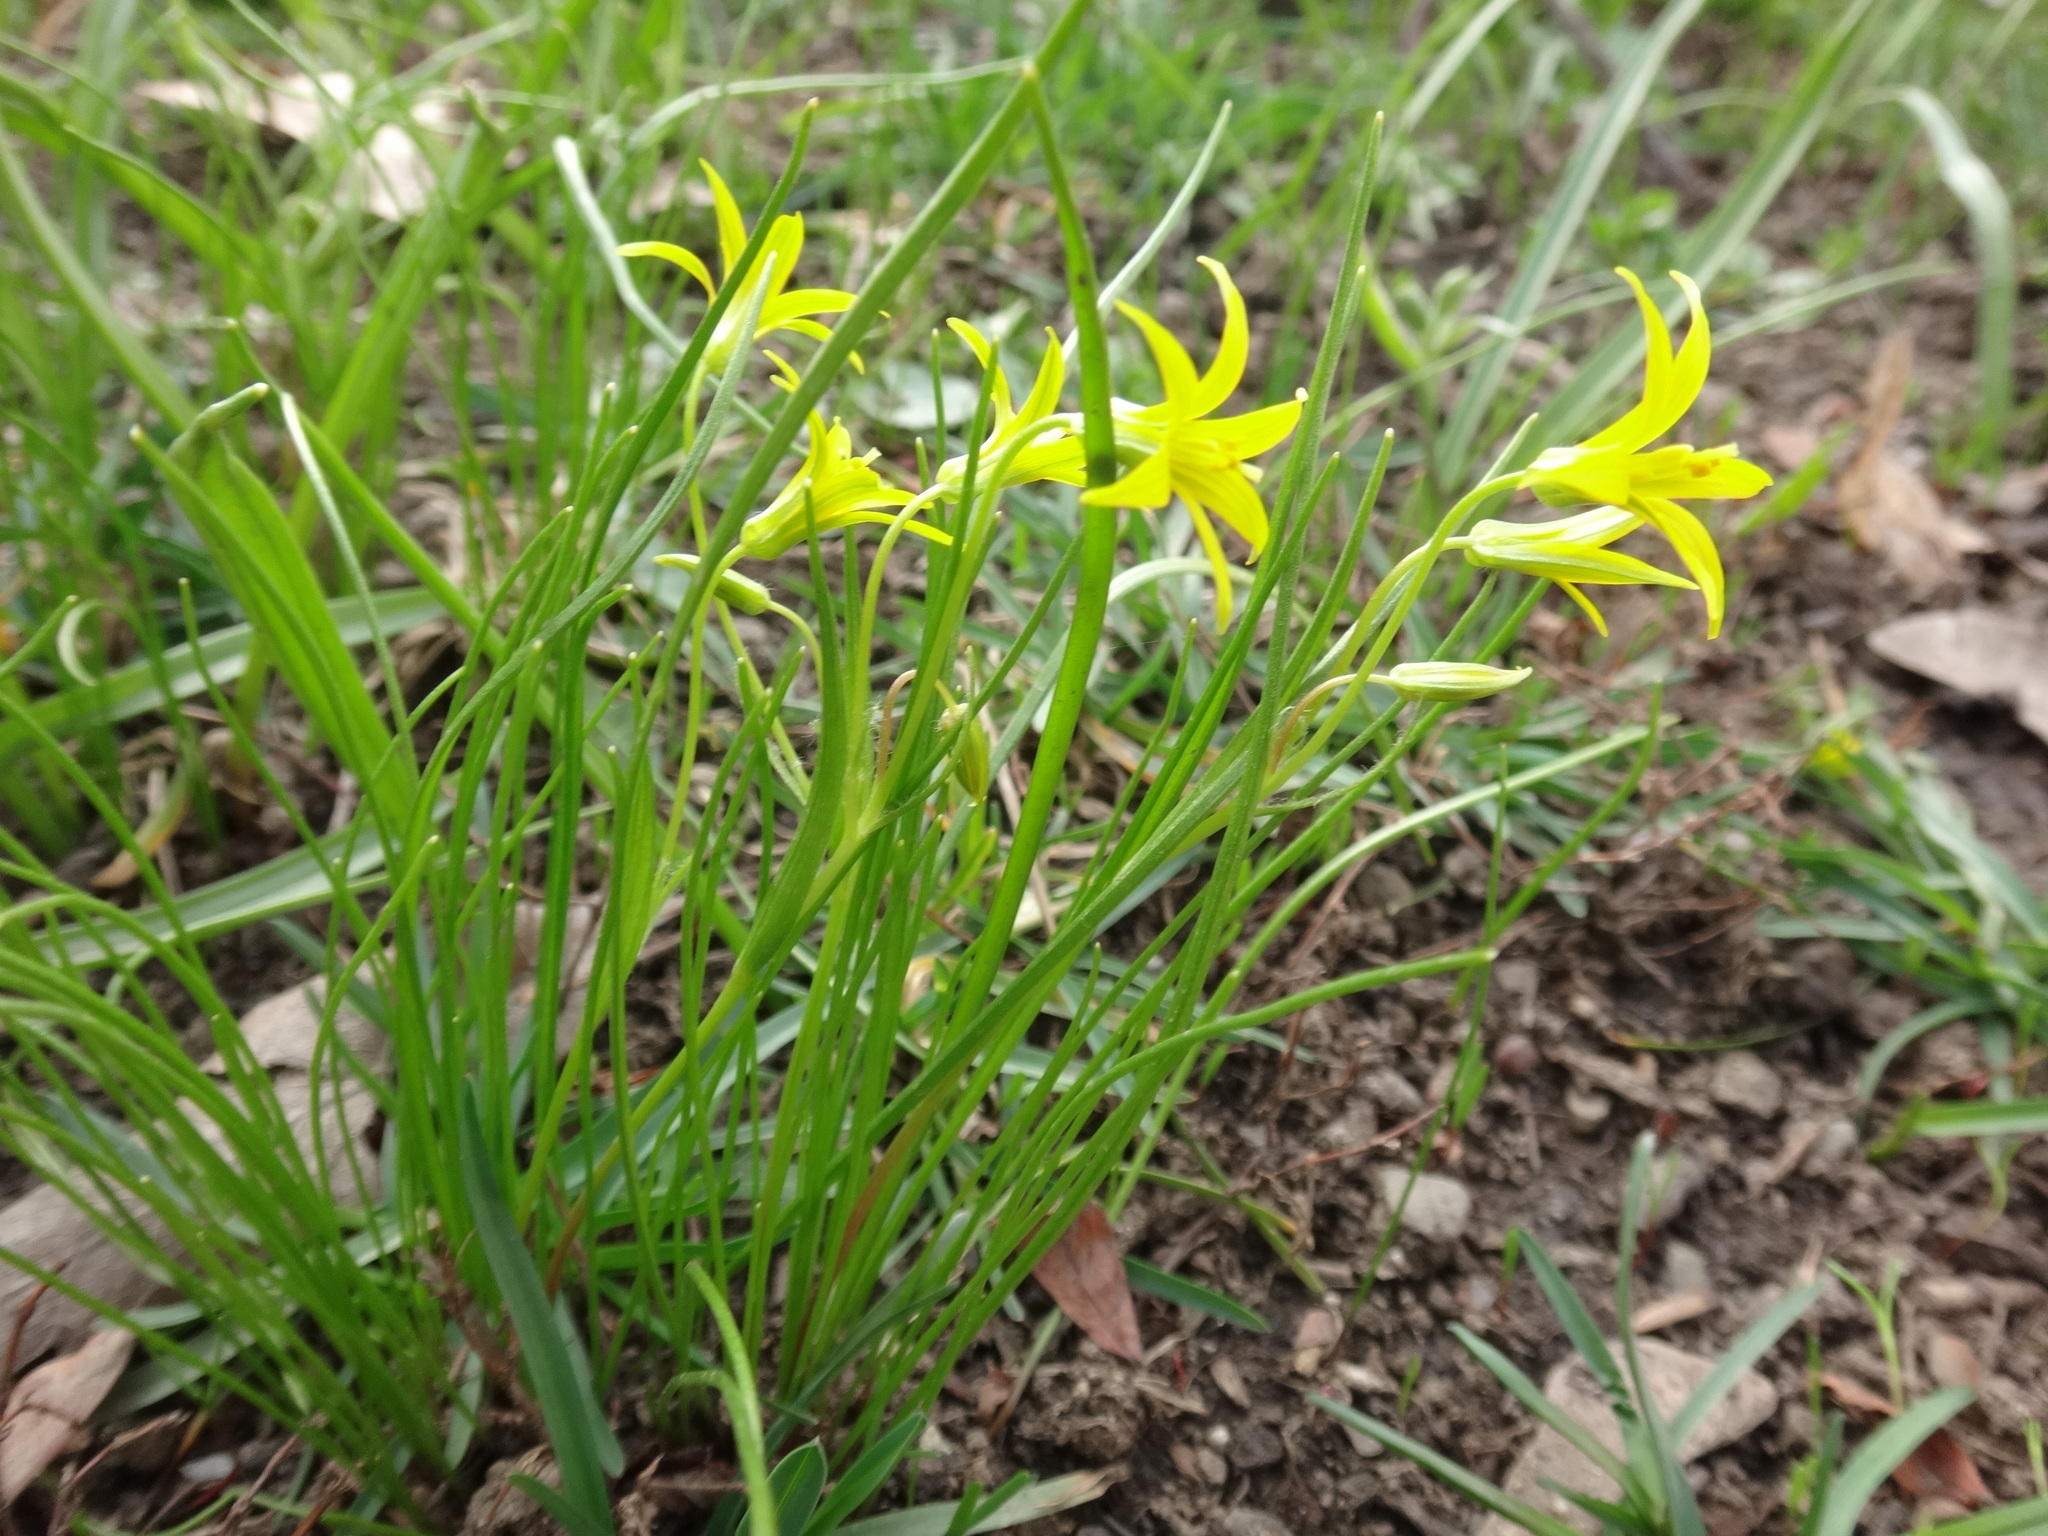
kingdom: Plantae
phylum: Tracheophyta
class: Liliopsida
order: Liliales
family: Liliaceae
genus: Gagea
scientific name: Gagea minima
